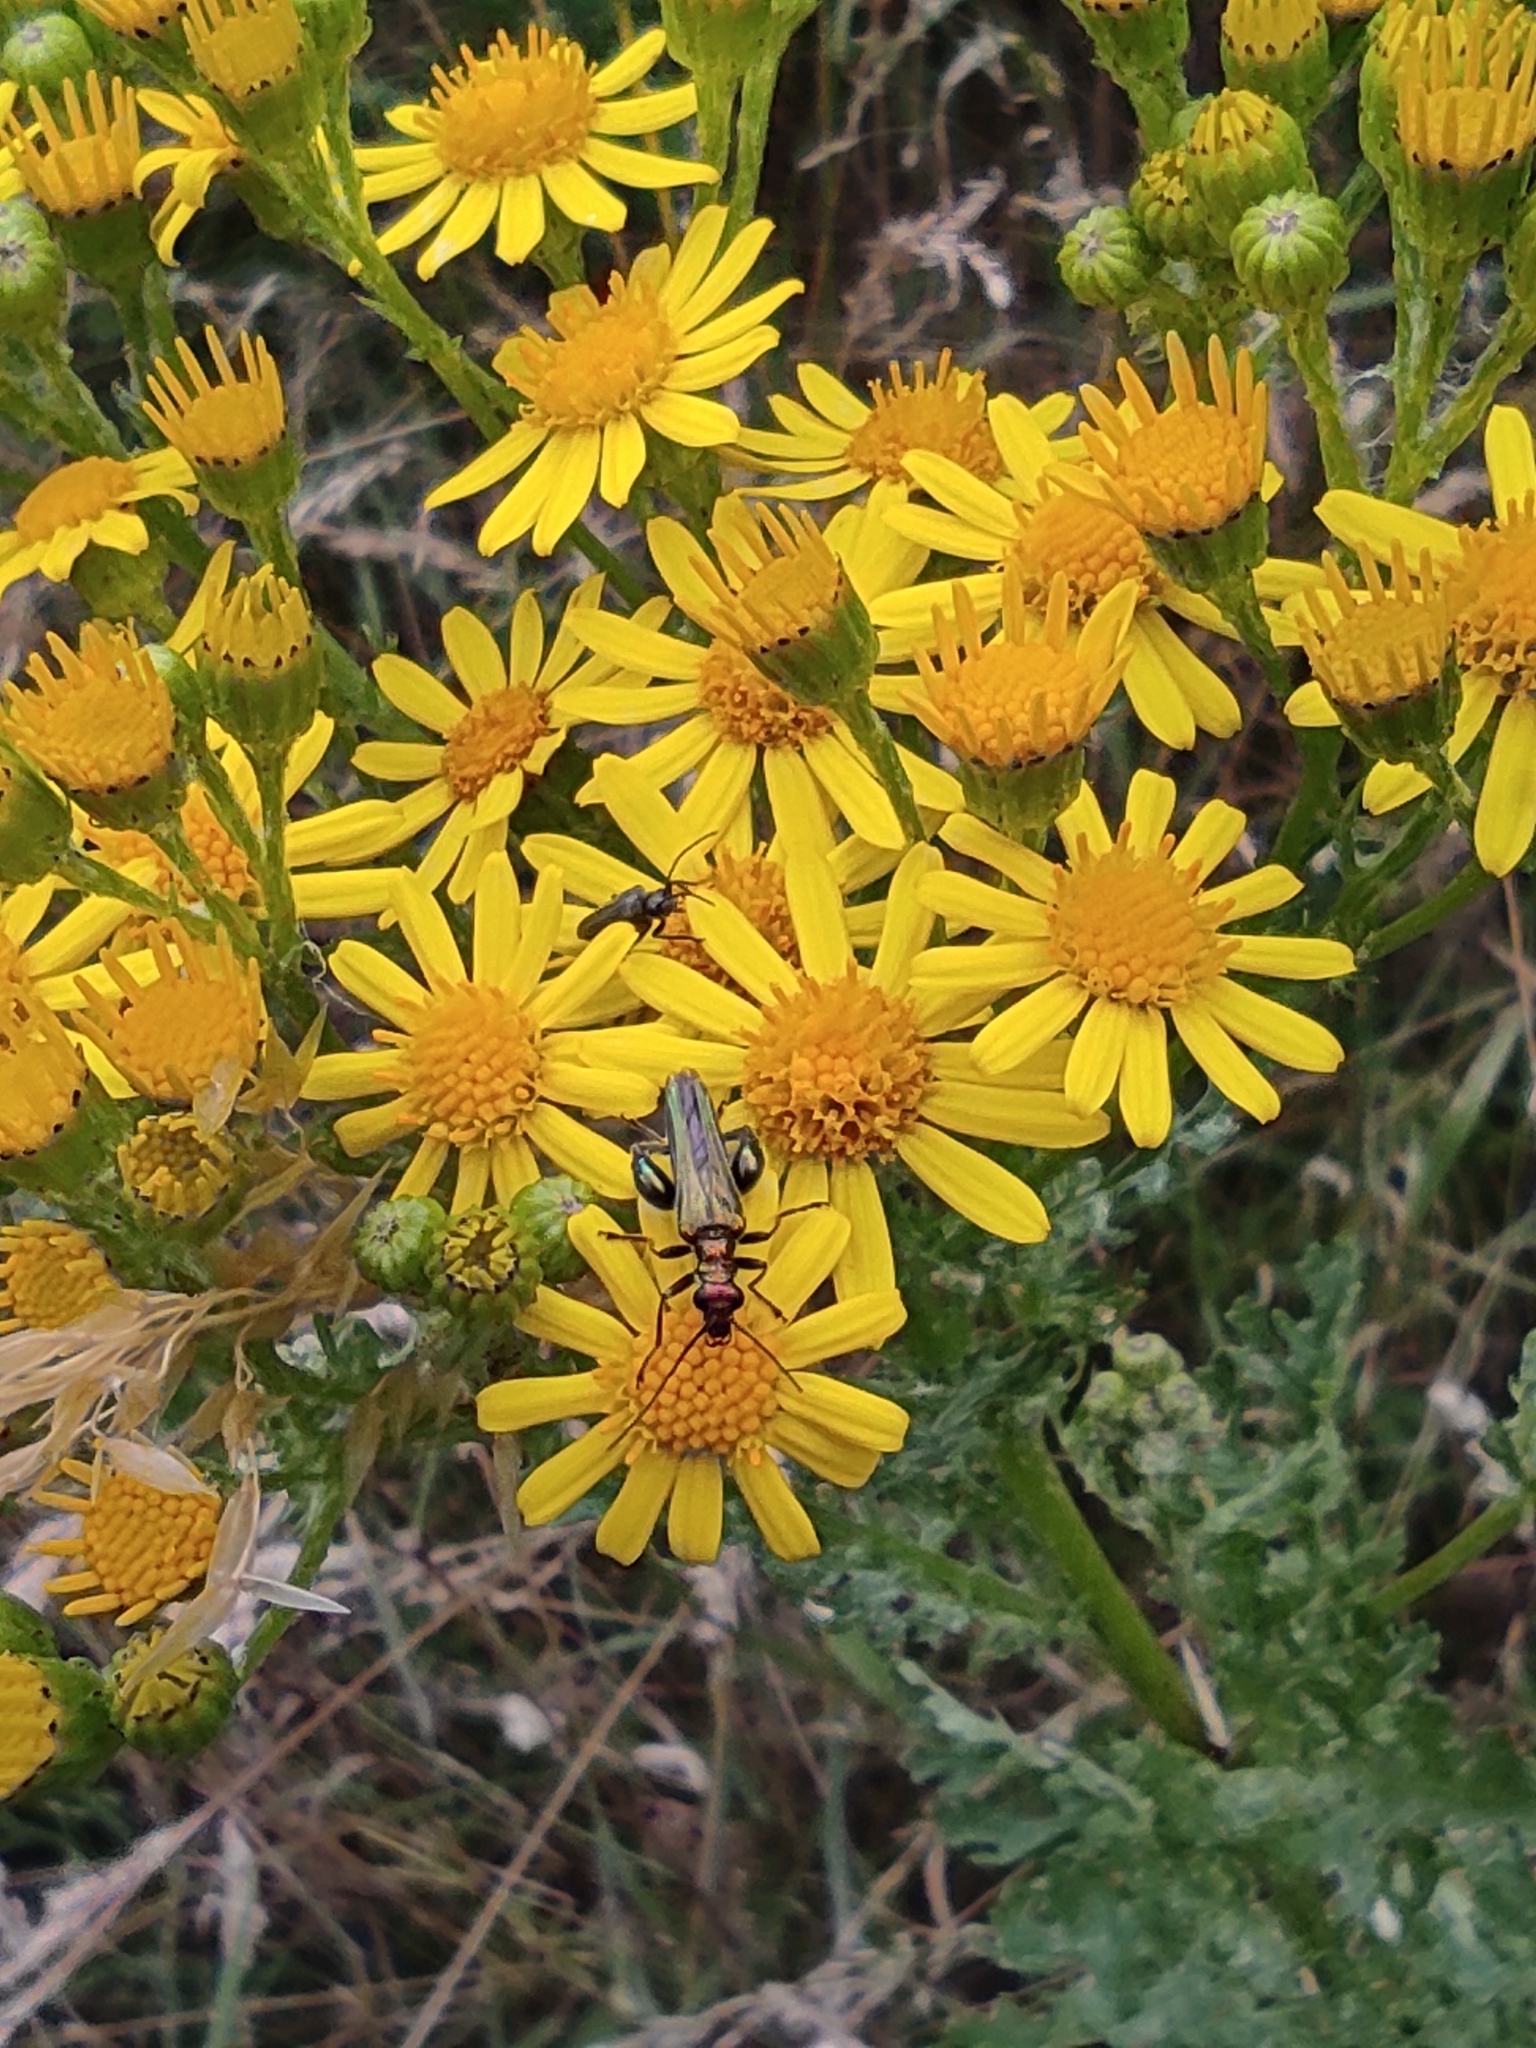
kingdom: Animalia
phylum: Arthropoda
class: Insecta
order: Coleoptera
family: Oedemeridae
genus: Oedemera
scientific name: Oedemera nobilis
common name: Swollen-thighed beetle
